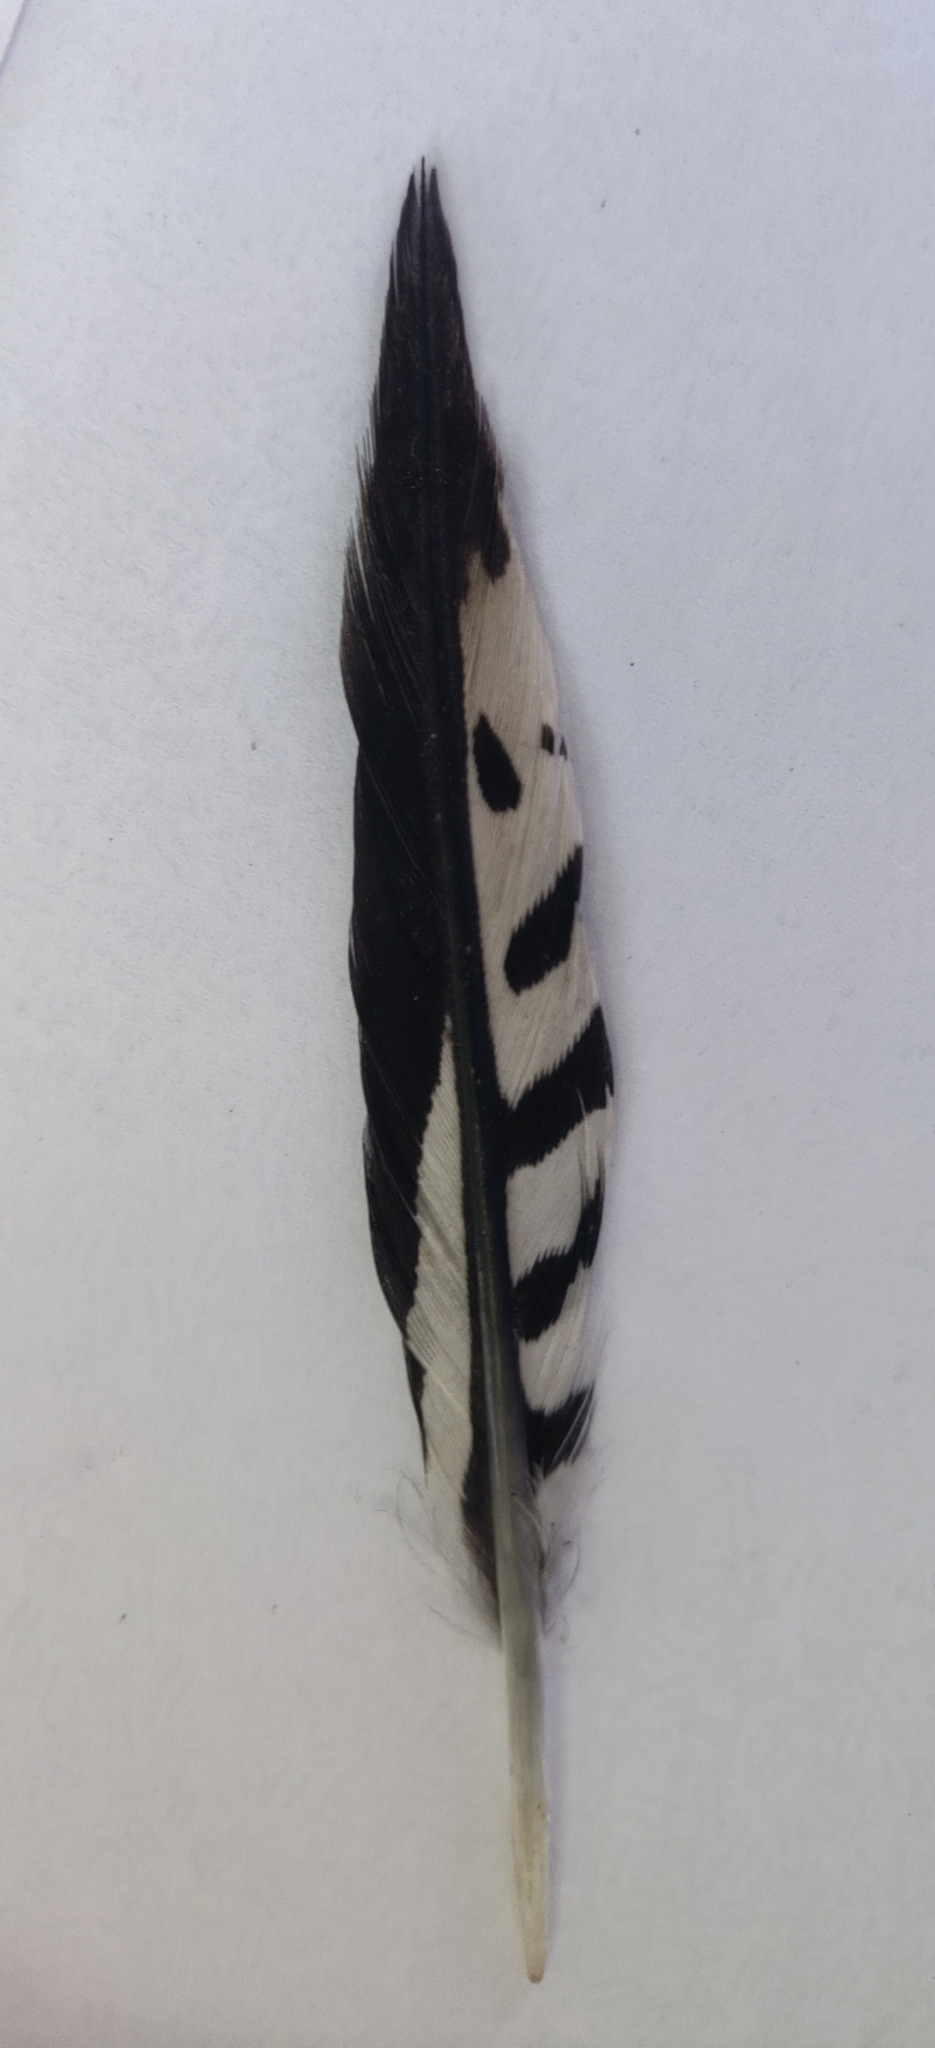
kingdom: Animalia
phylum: Chordata
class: Aves
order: Piciformes
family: Picidae
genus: Melanerpes
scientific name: Melanerpes carolinus
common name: Red-bellied woodpecker
